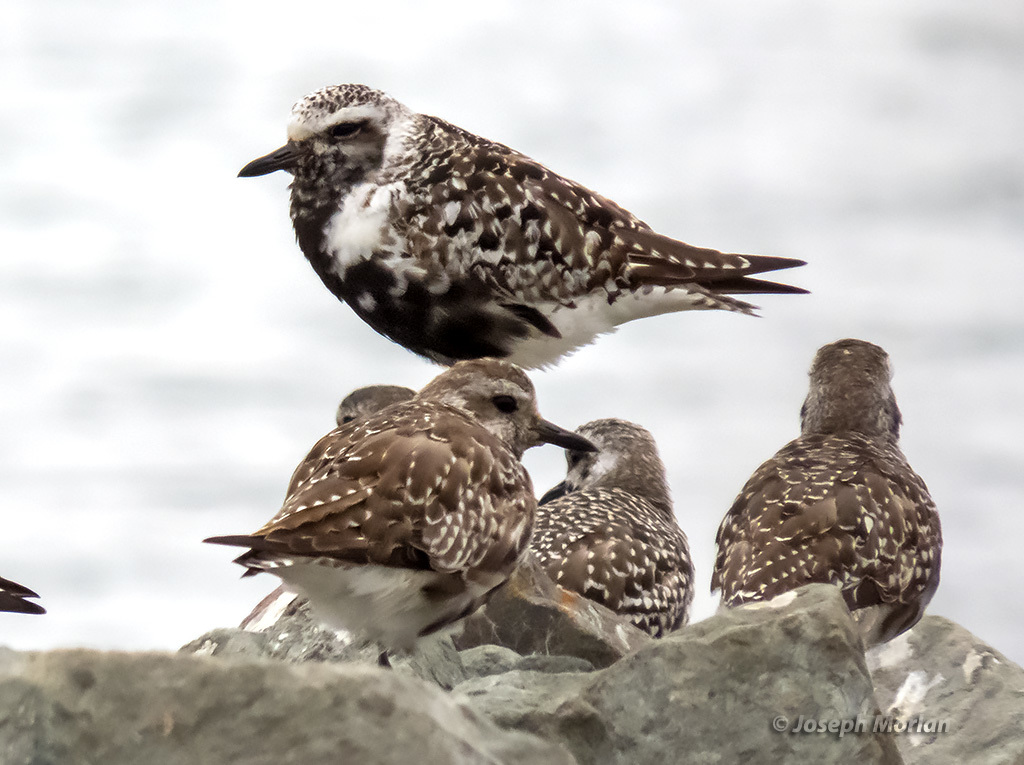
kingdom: Animalia
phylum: Chordata
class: Aves
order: Charadriiformes
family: Charadriidae
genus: Pluvialis
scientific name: Pluvialis squatarola
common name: Grey plover
